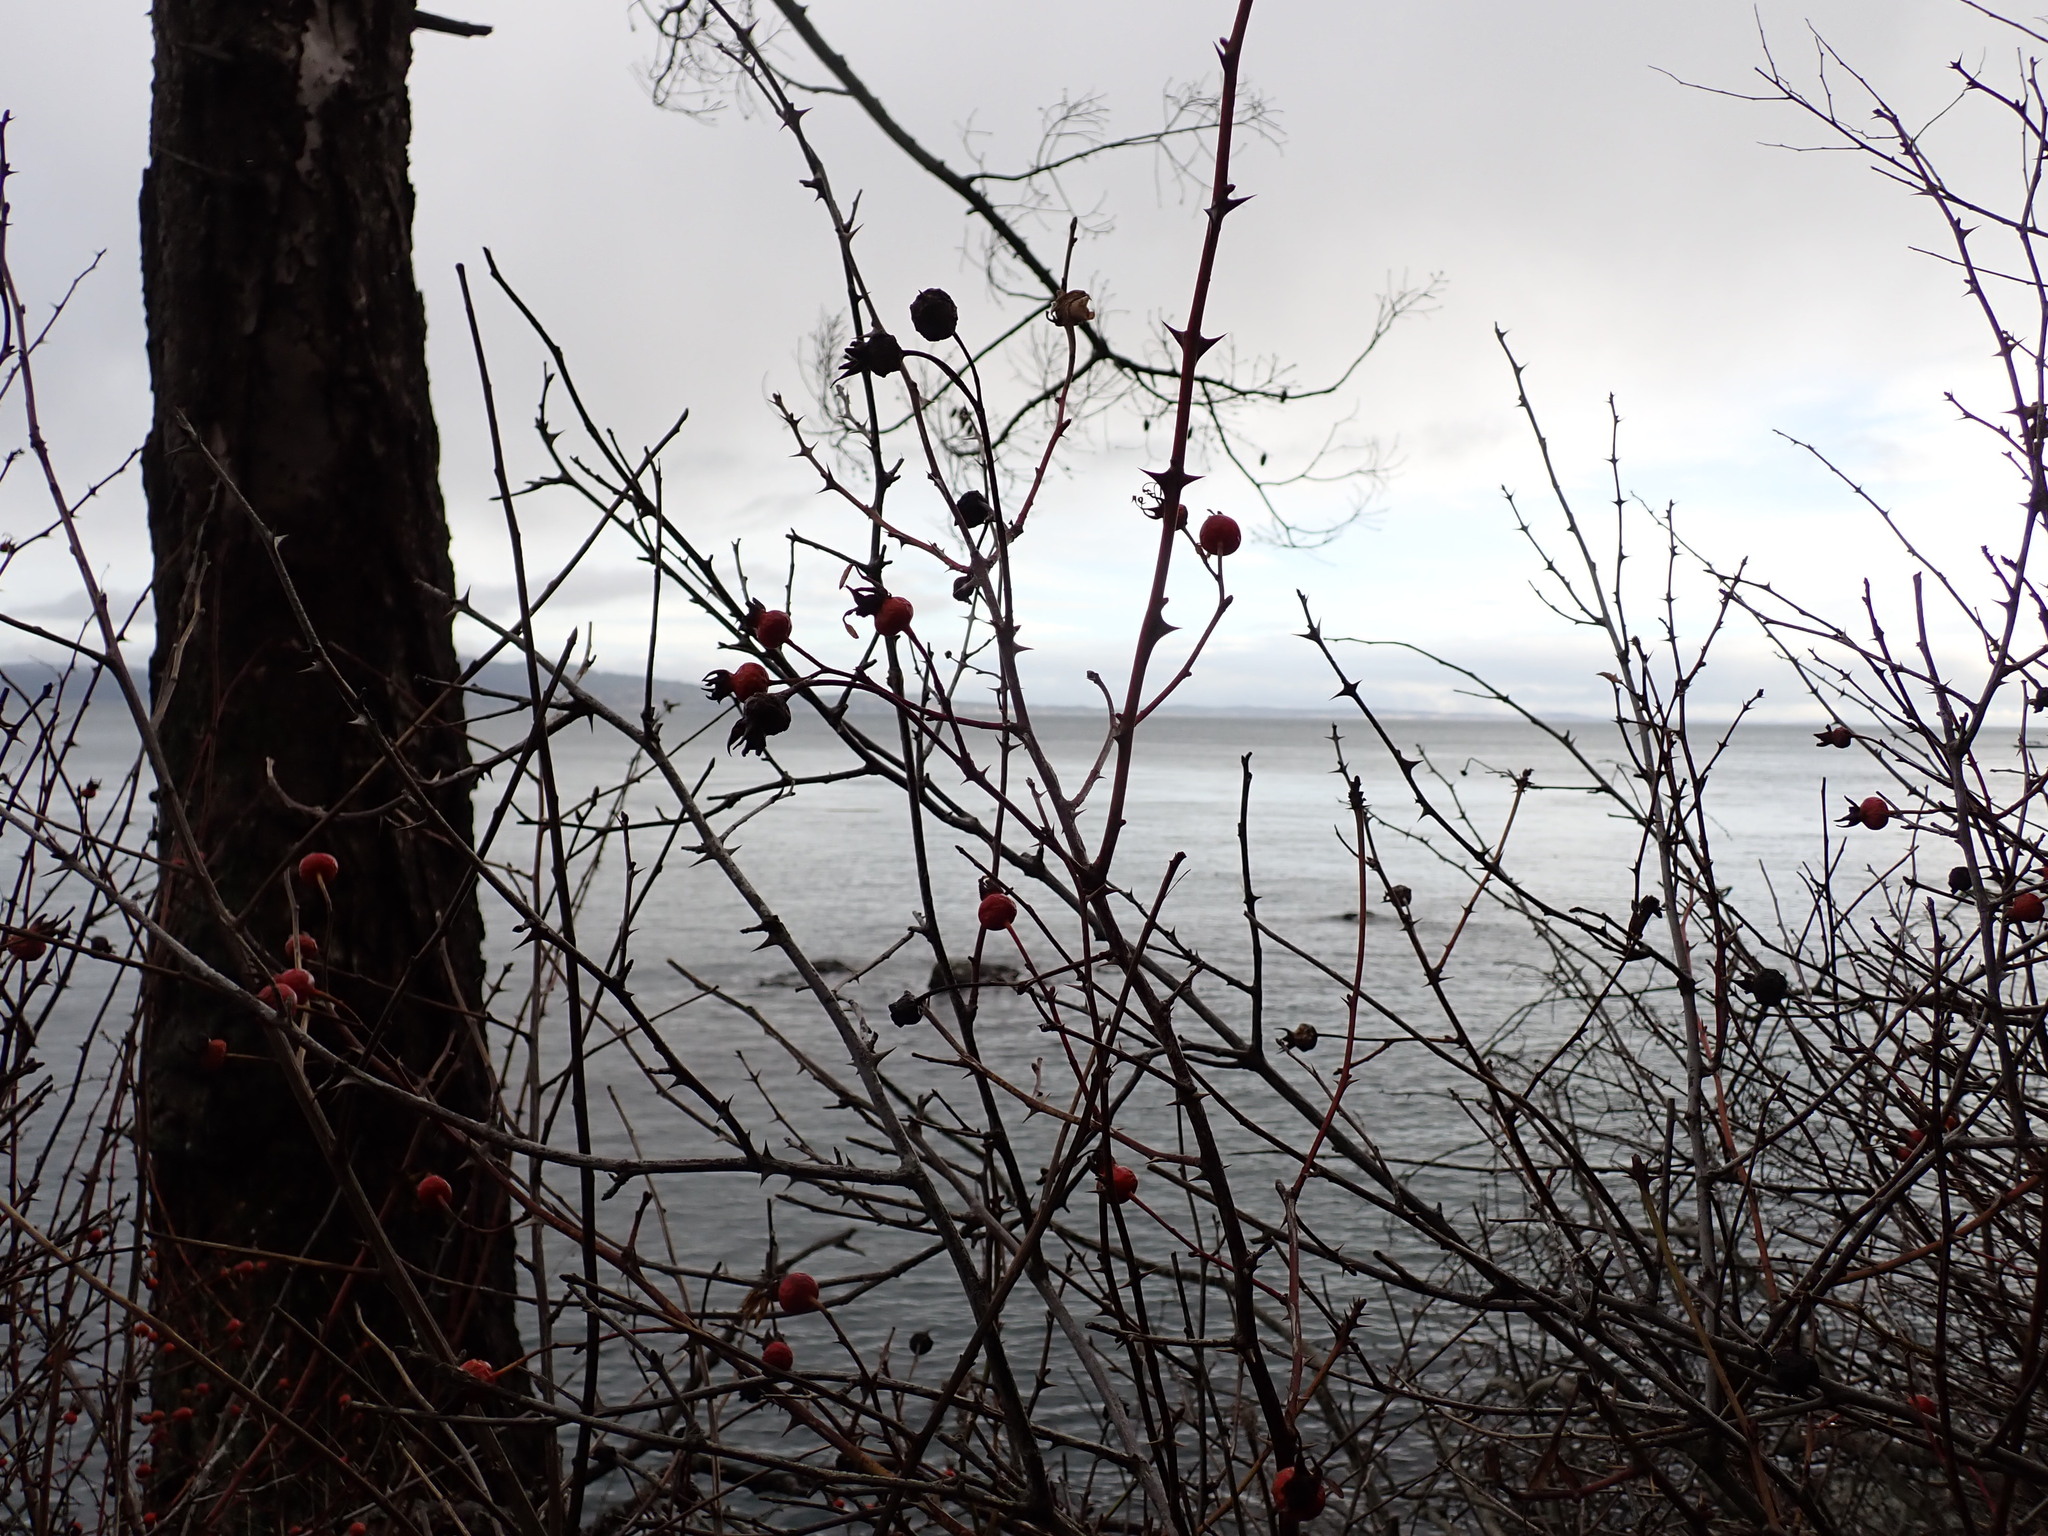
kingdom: Plantae
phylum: Tracheophyta
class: Magnoliopsida
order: Rosales
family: Rosaceae
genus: Rosa
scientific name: Rosa nutkana
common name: Nootka rose
